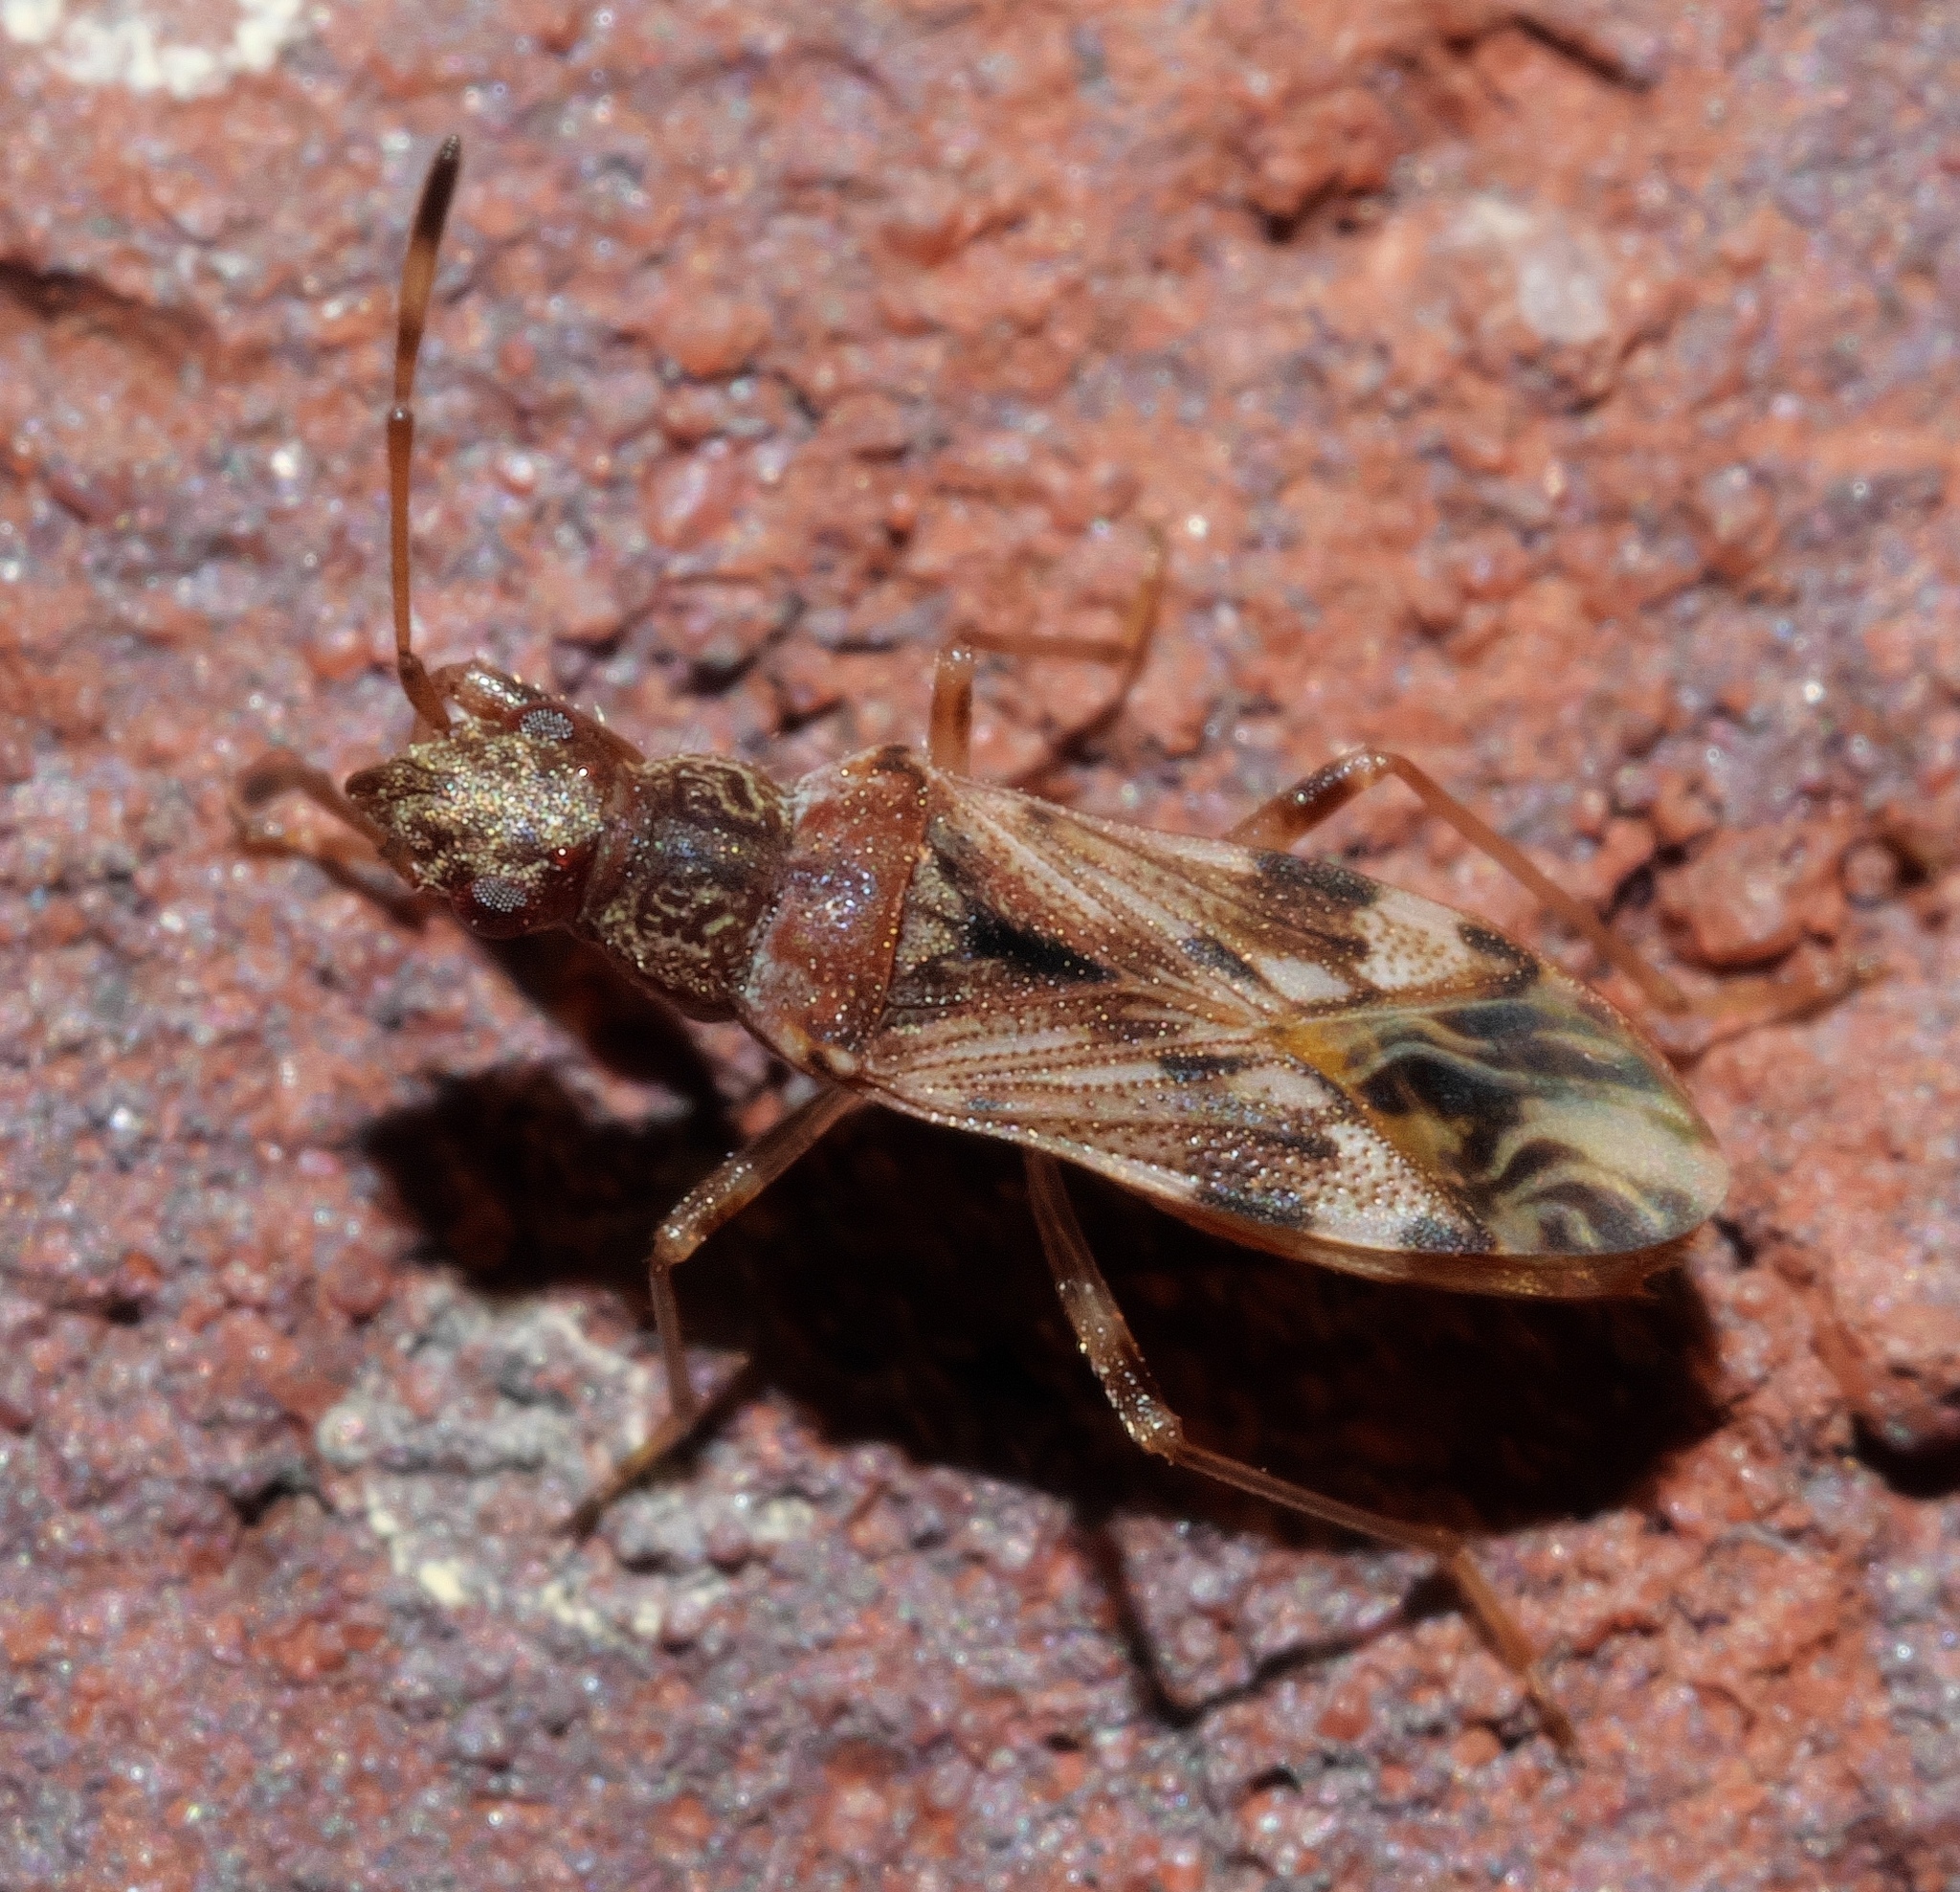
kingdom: Animalia
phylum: Arthropoda
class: Insecta
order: Hemiptera
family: Rhyparochromidae
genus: Neopamera
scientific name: Neopamera albocincta
